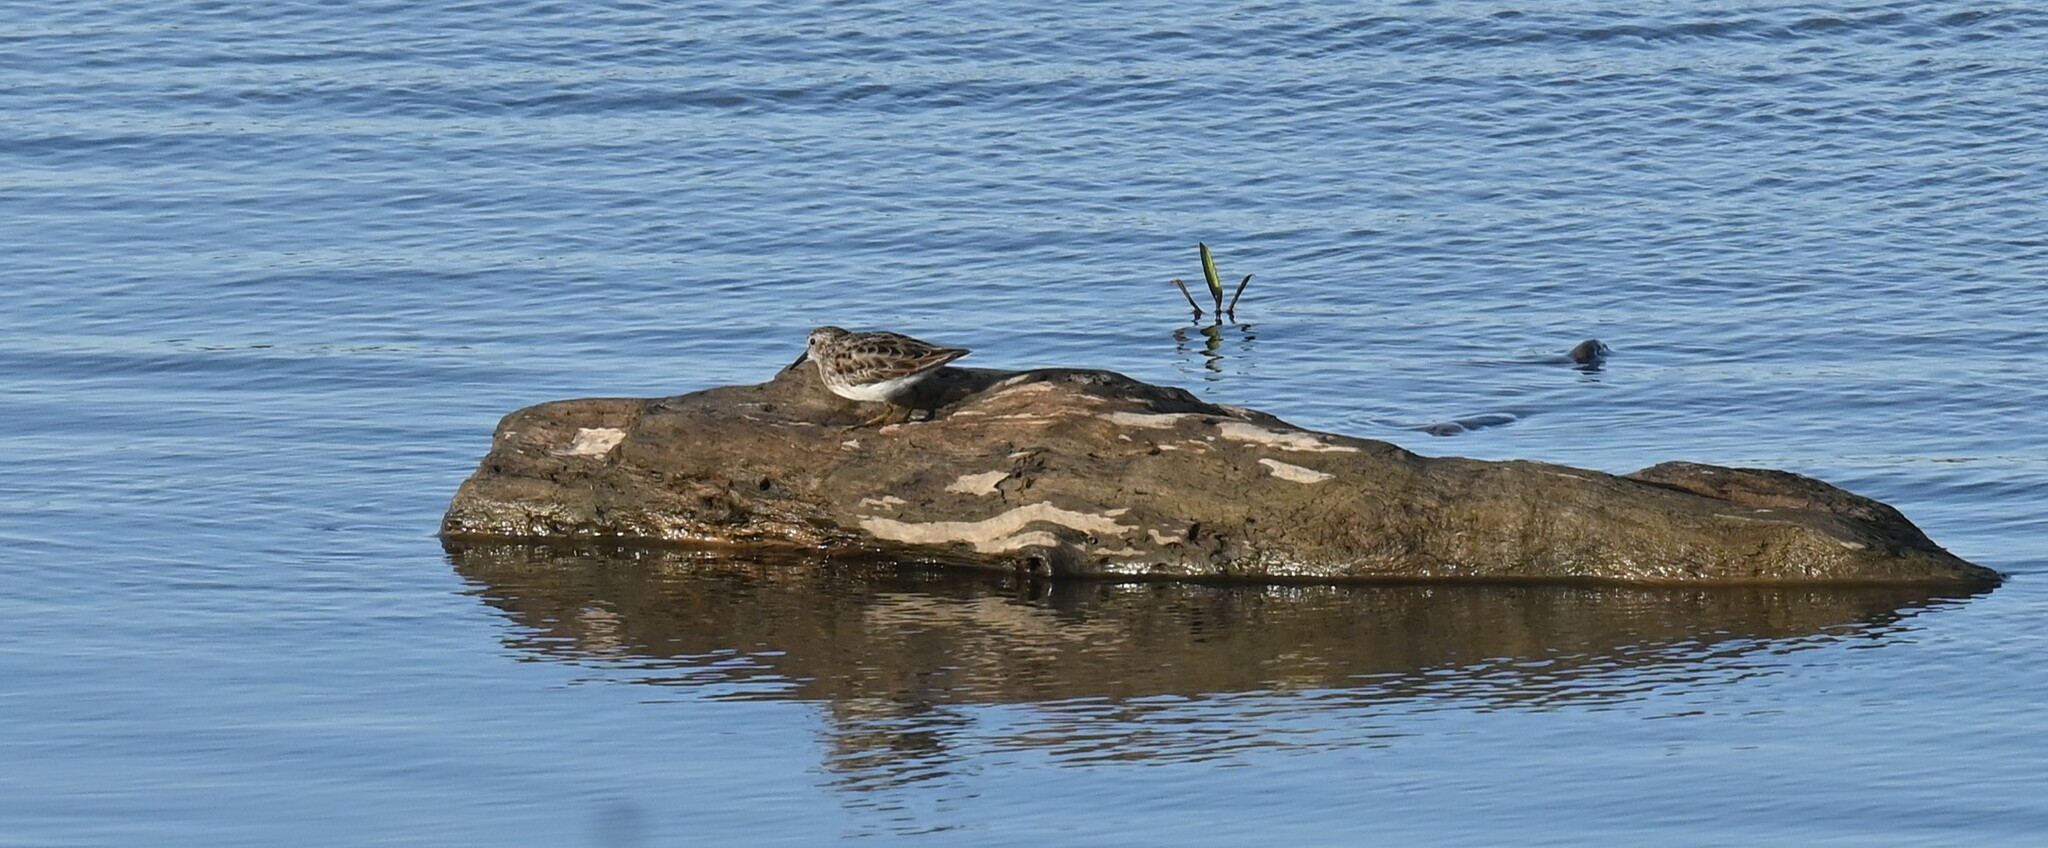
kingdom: Animalia
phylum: Chordata
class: Aves
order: Charadriiformes
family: Scolopacidae
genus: Calidris
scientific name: Calidris minutilla
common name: Least sandpiper
